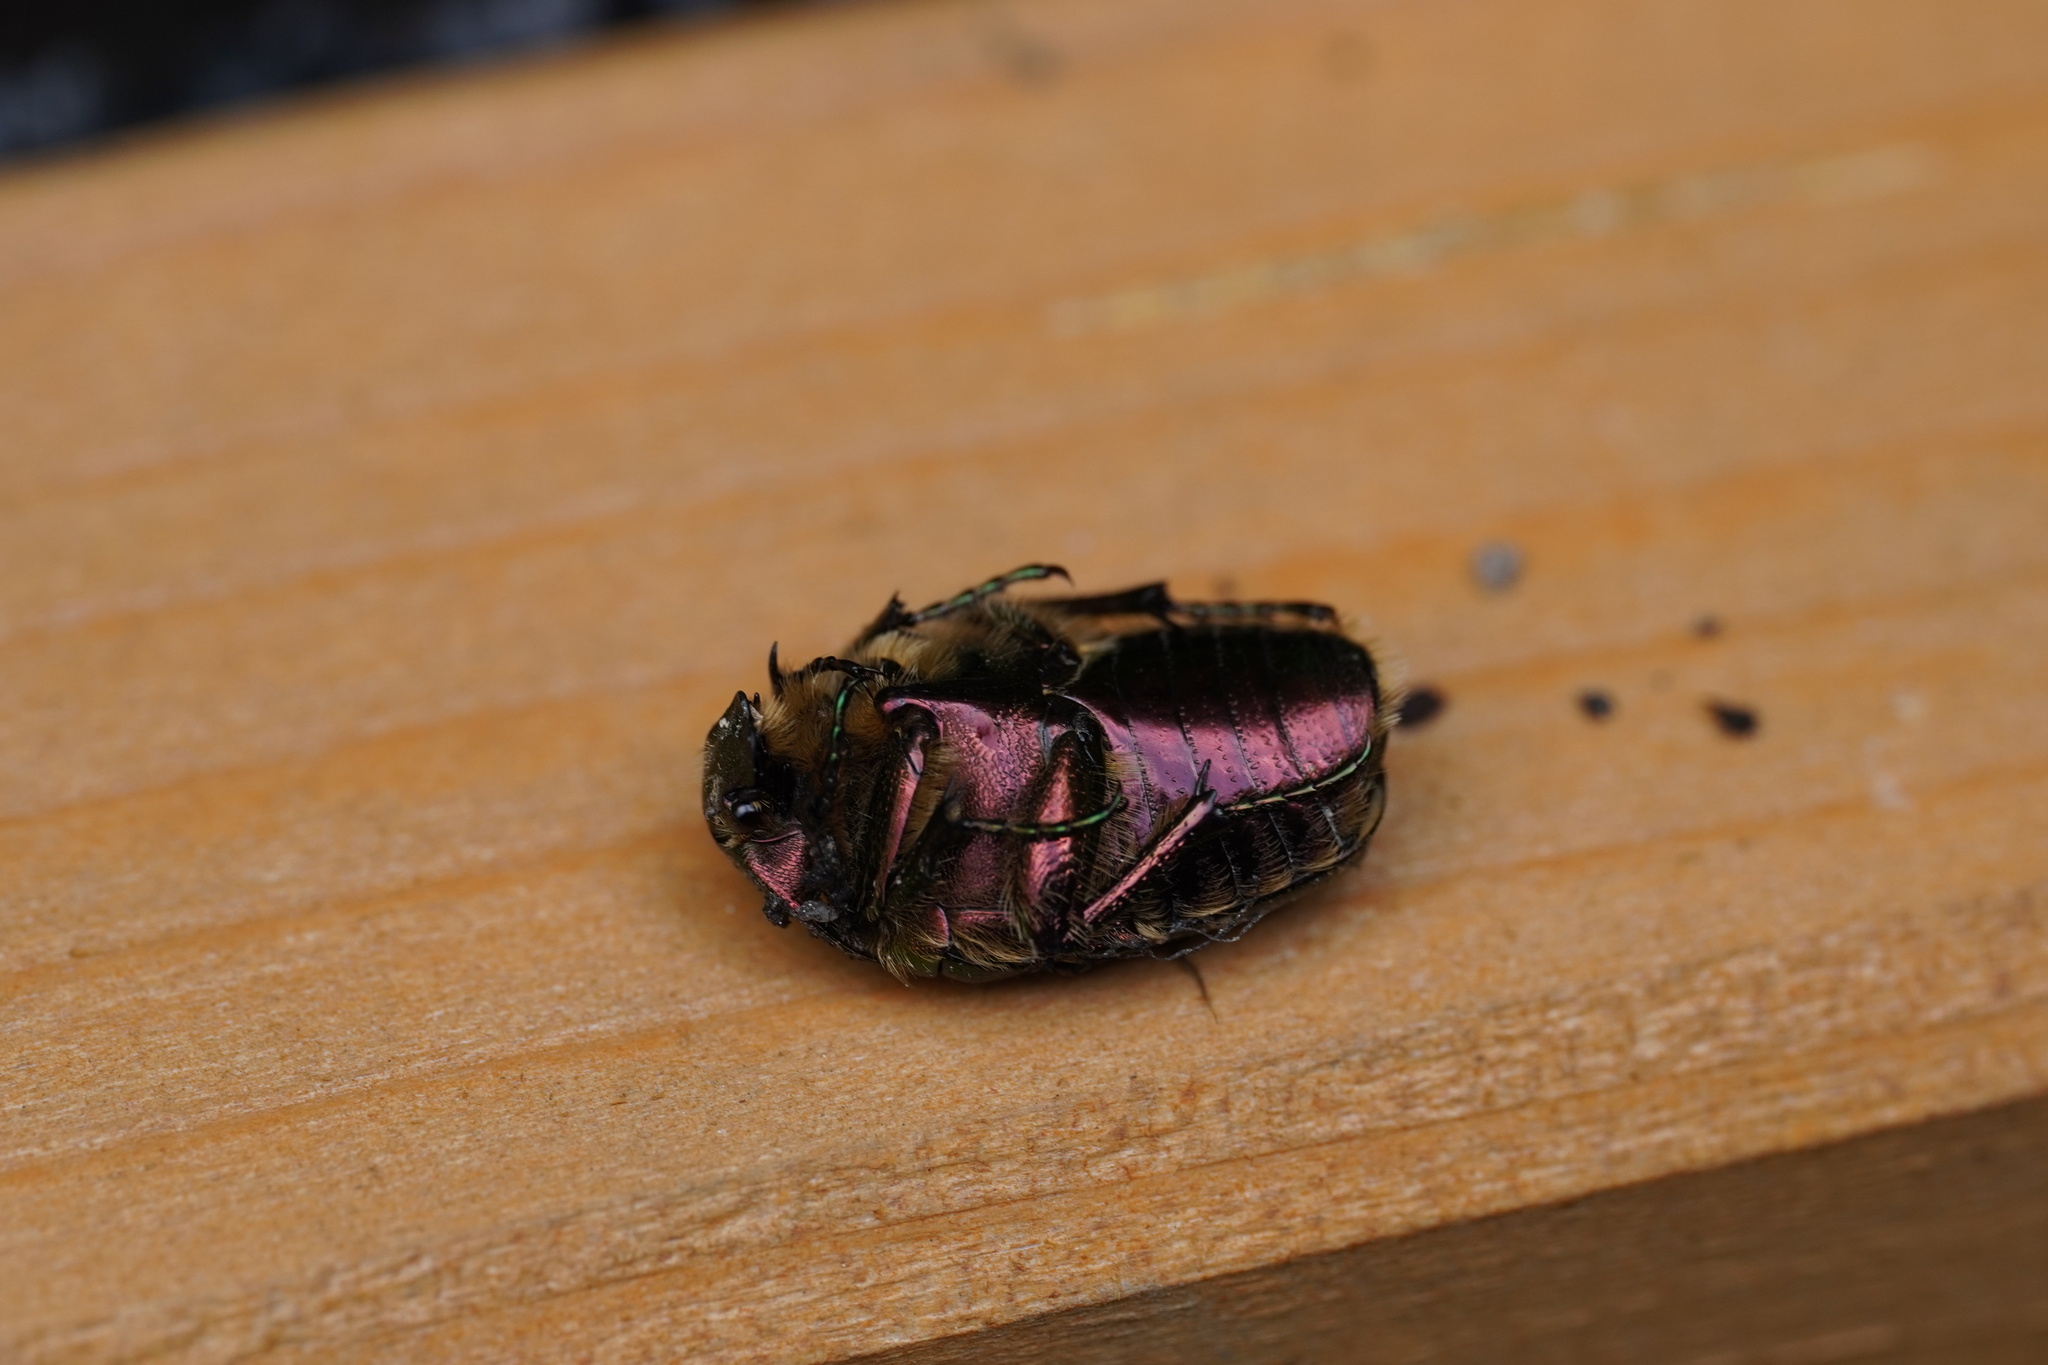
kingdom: Animalia
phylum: Arthropoda
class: Insecta
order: Coleoptera
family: Scarabaeidae
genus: Cetonia
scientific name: Cetonia aurata
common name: Rose chafer
